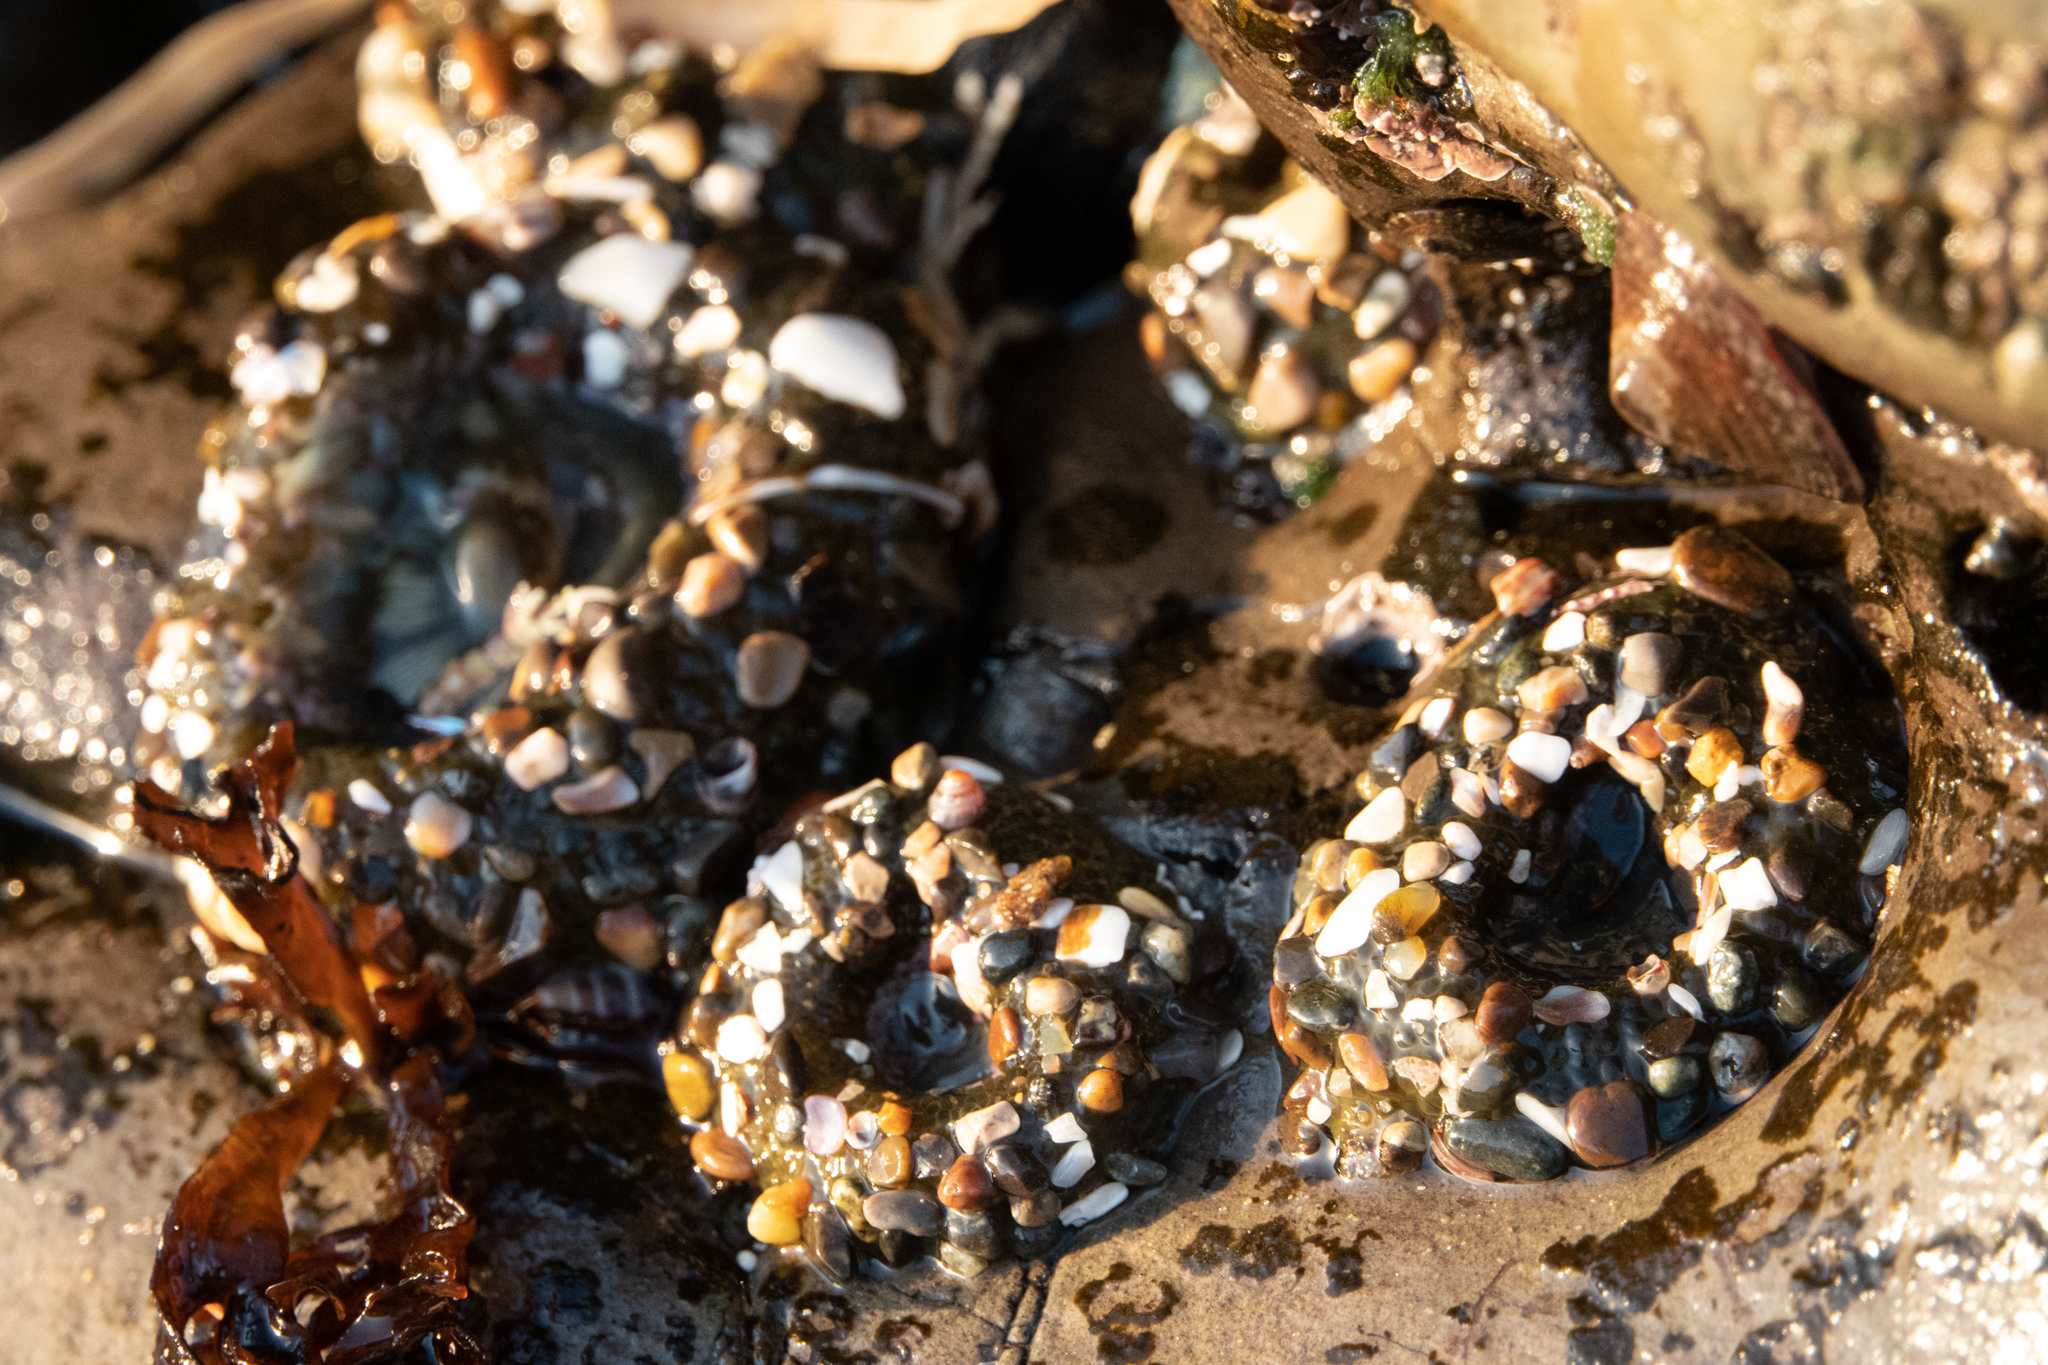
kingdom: Animalia
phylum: Cnidaria
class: Anthozoa
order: Actiniaria
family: Actiniidae
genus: Anthopleura
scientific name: Anthopleura elegantissima
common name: Clonal anemone
